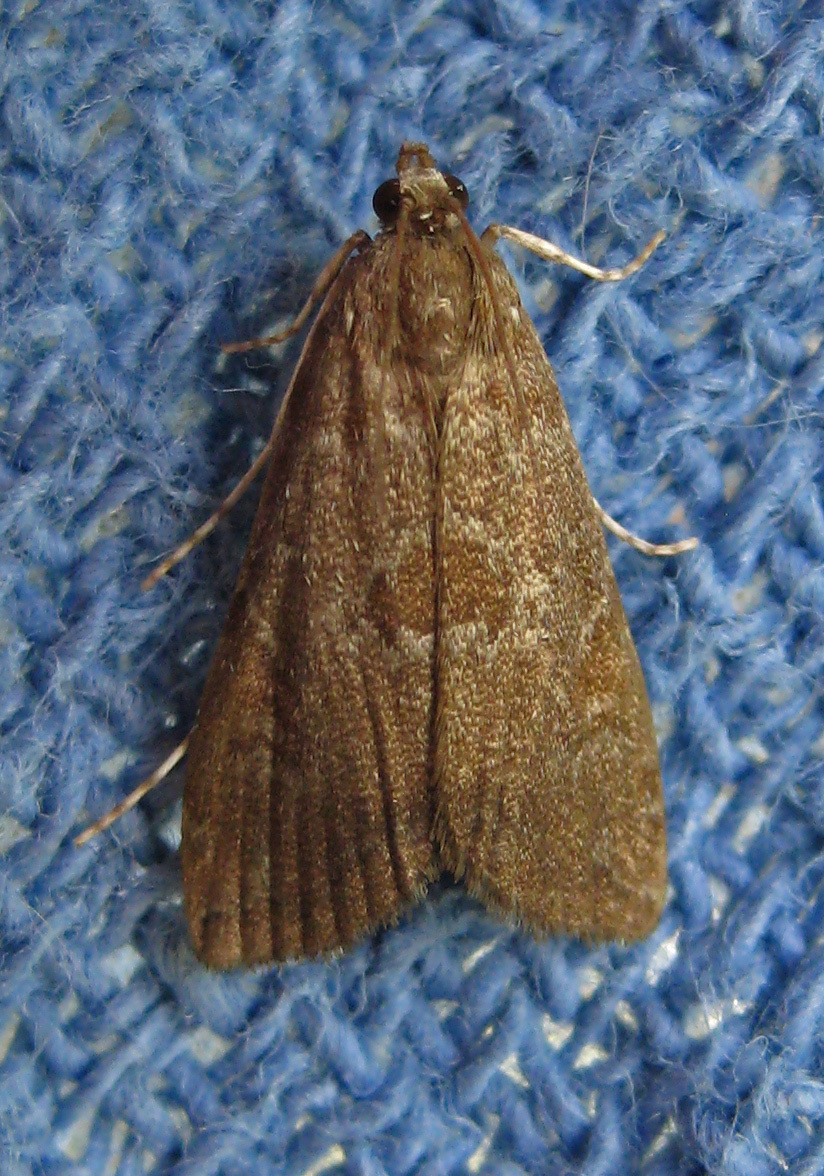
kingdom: Animalia
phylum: Arthropoda
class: Insecta
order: Lepidoptera
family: Crambidae
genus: Elophila
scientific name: Elophila gyralis
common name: Waterlily borer moth
